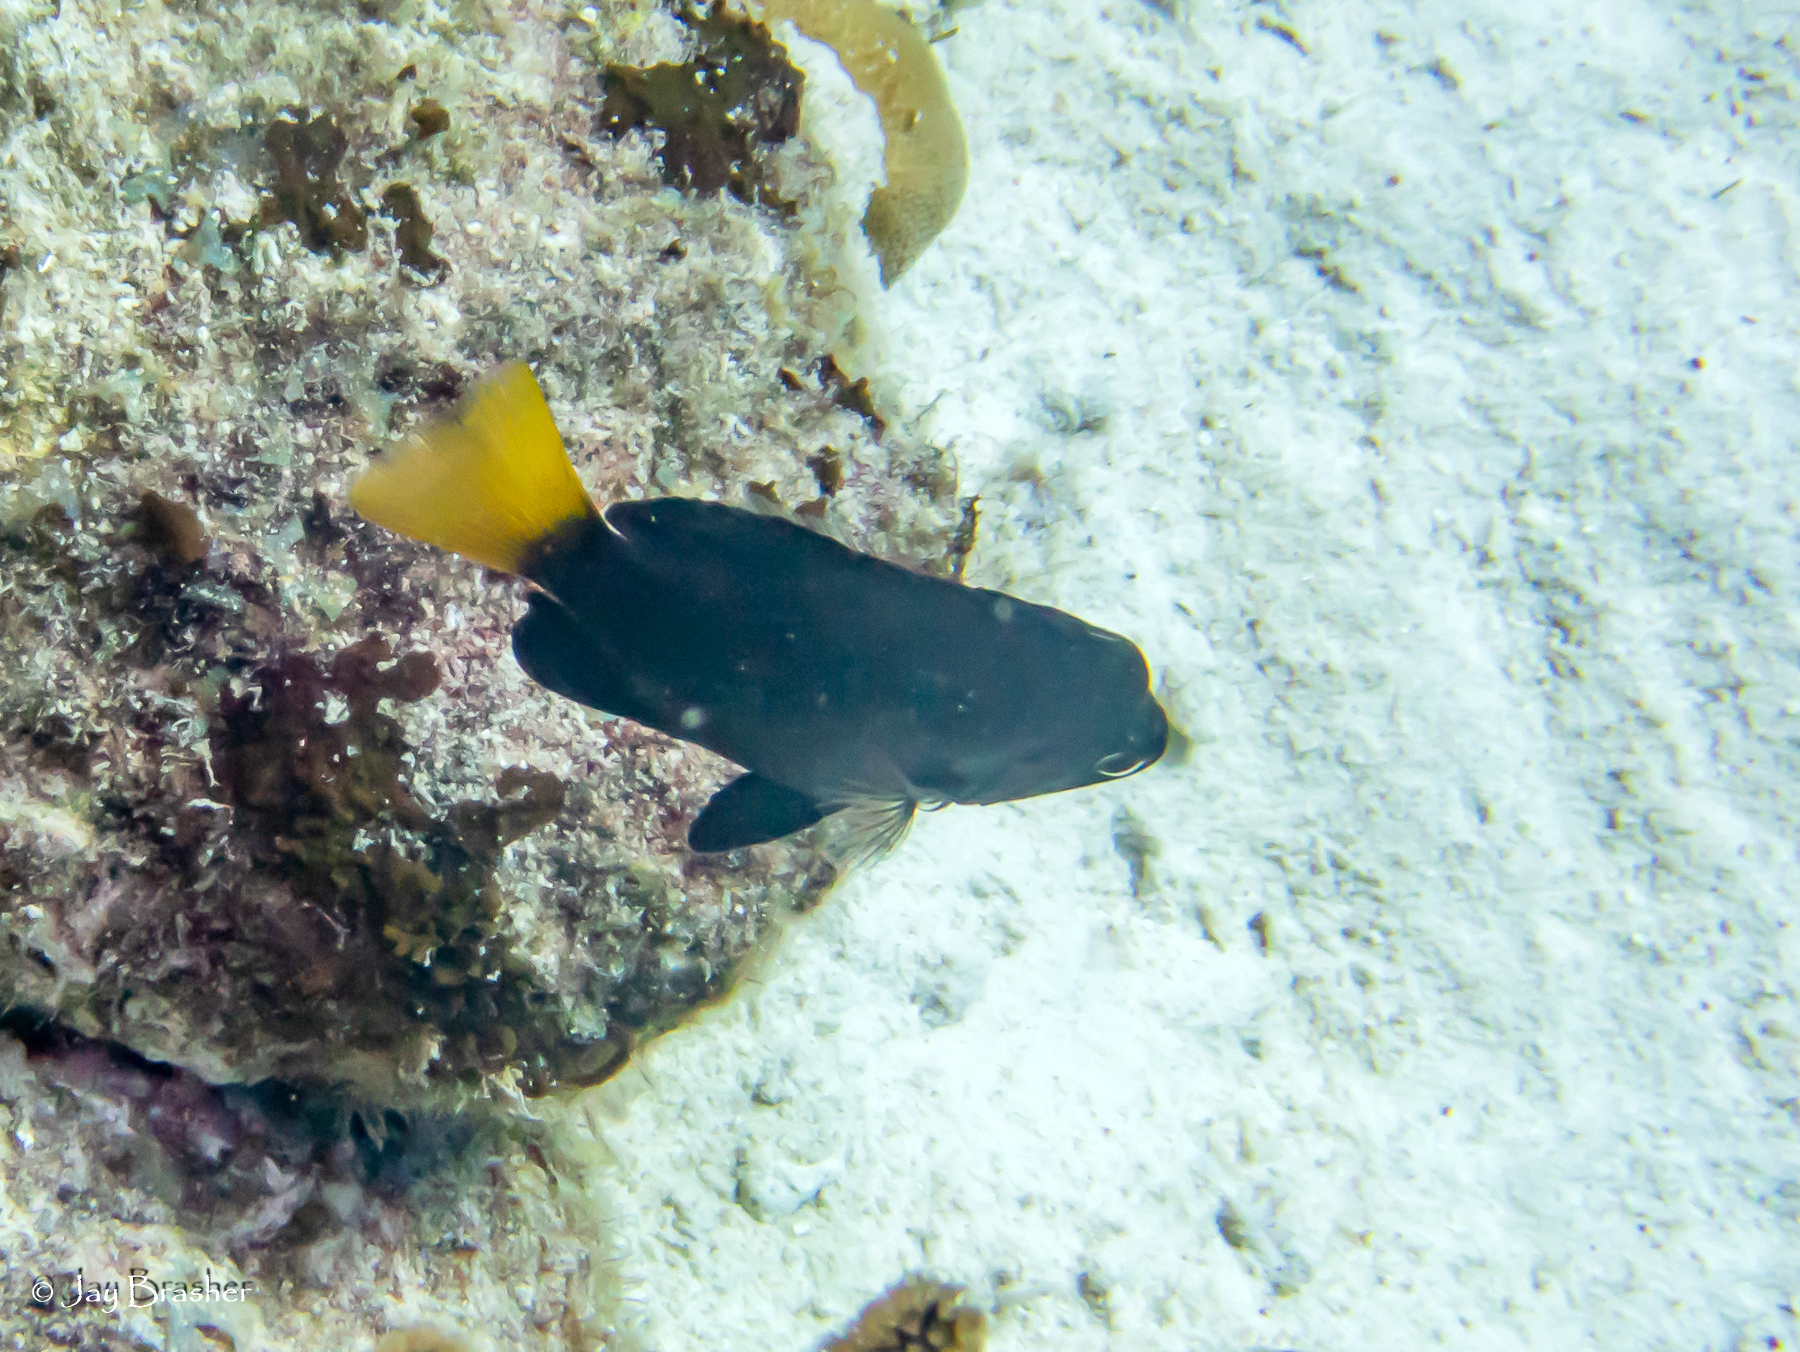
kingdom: Animalia
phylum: Chordata
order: Perciformes
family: Serranidae
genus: Hypoplectrus
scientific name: Hypoplectrus chlorurus
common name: Yellowtail hamlet
